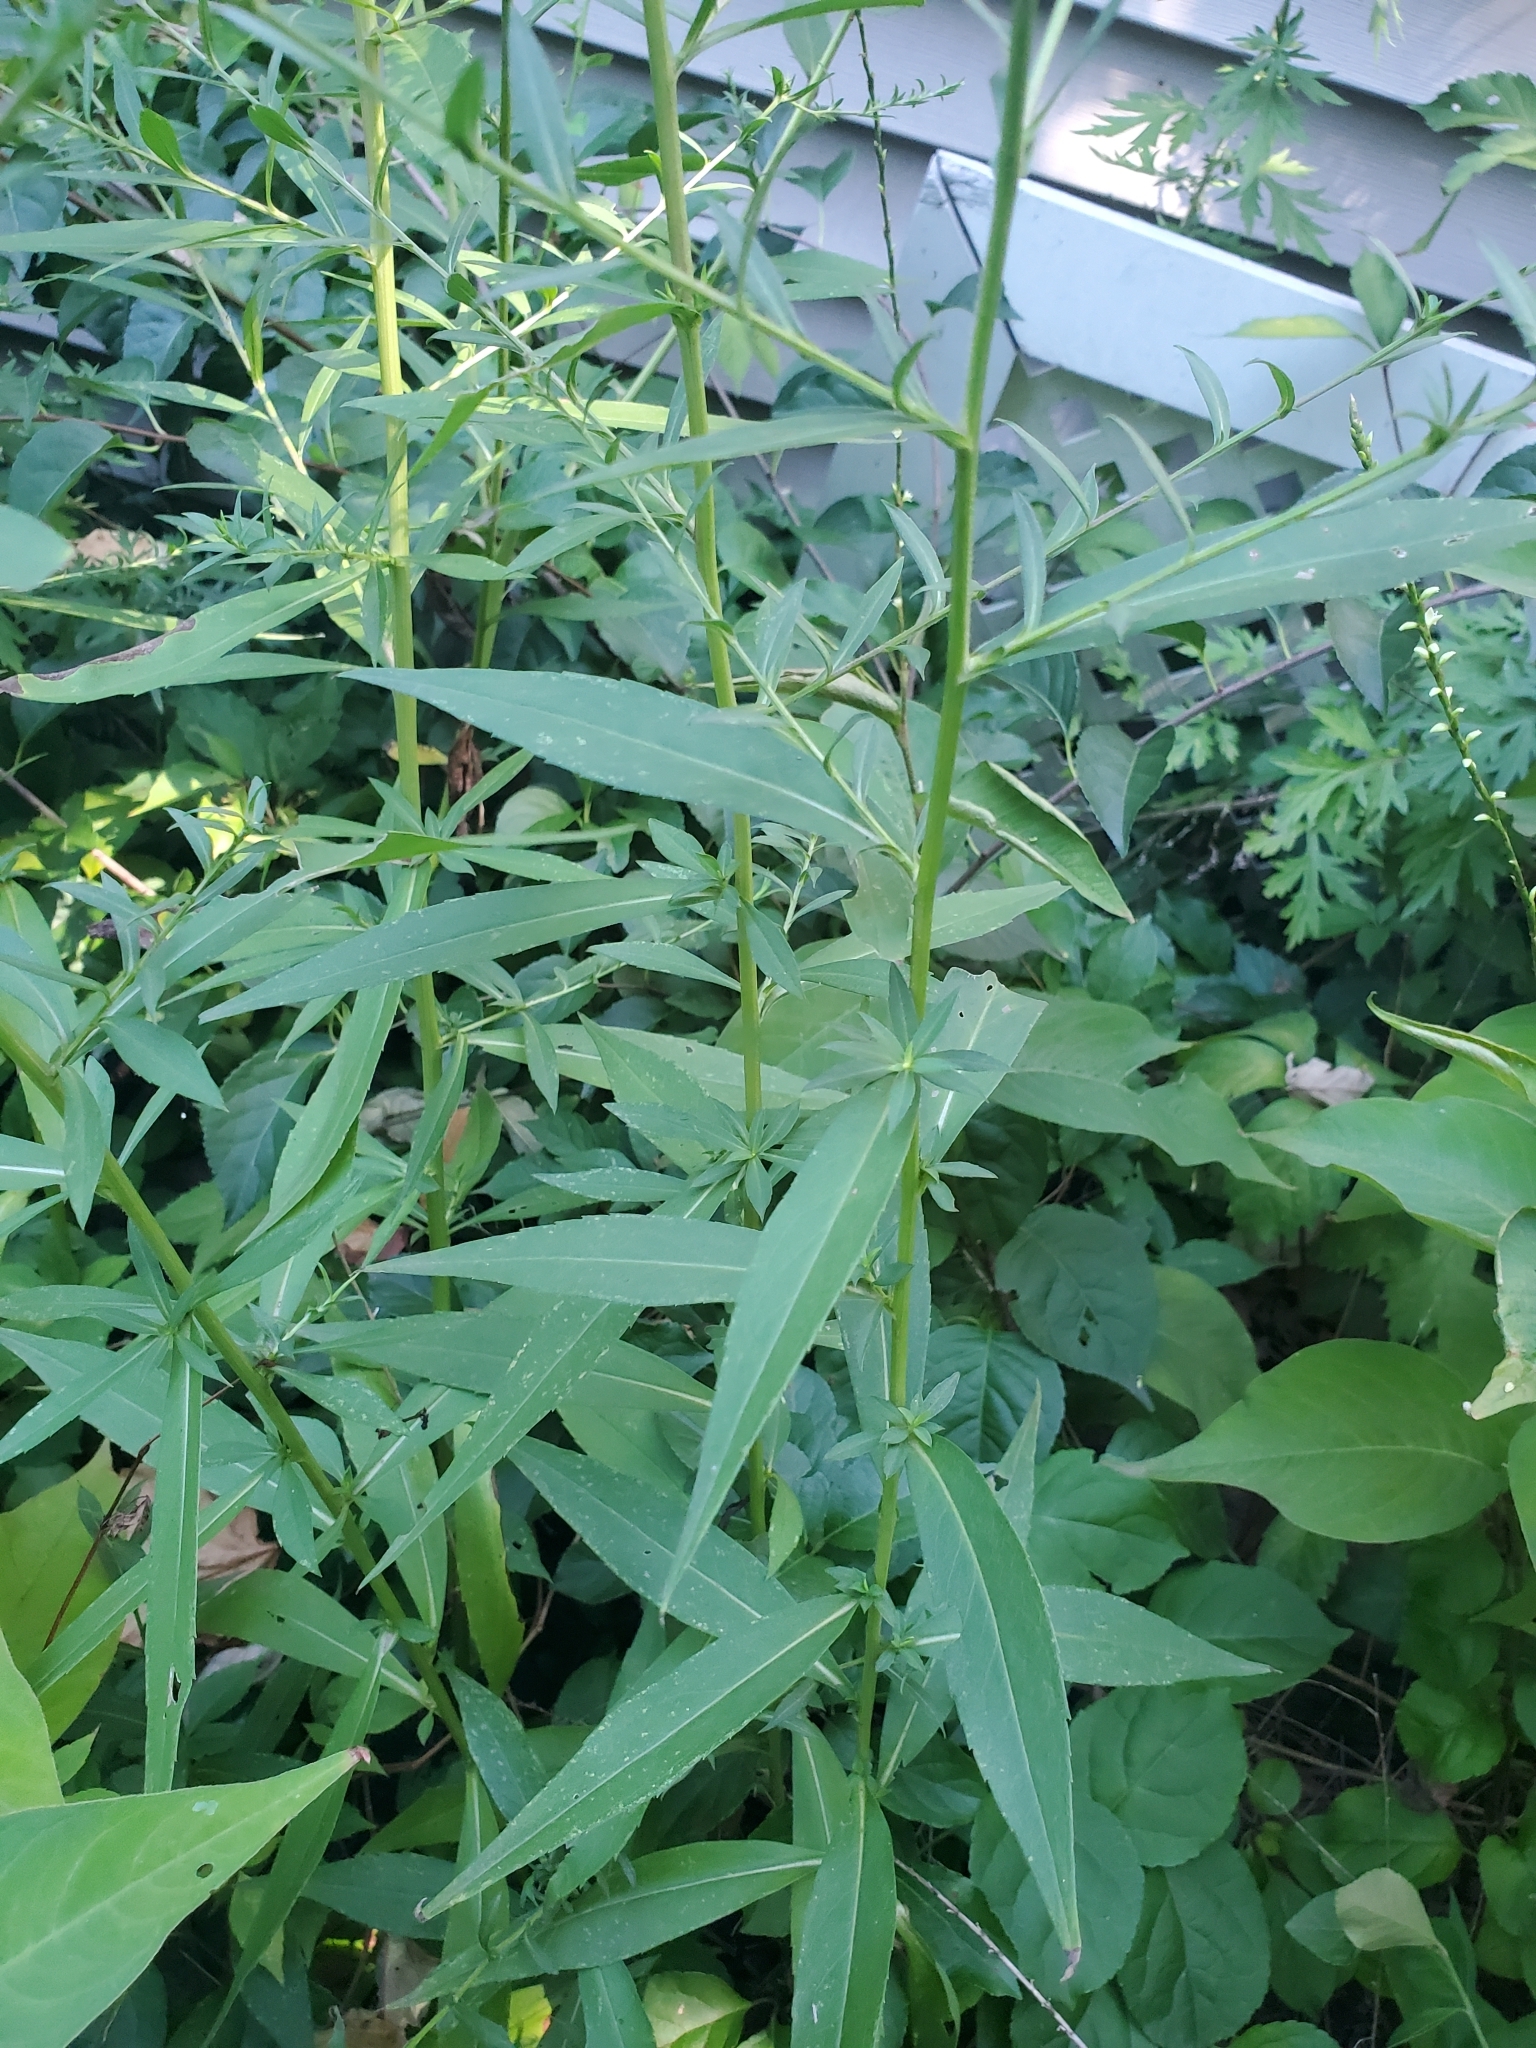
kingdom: Plantae
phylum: Tracheophyta
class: Magnoliopsida
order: Asterales
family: Asteraceae
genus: Symphyotrichum
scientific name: Symphyotrichum lanceolatum
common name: Panicled aster
